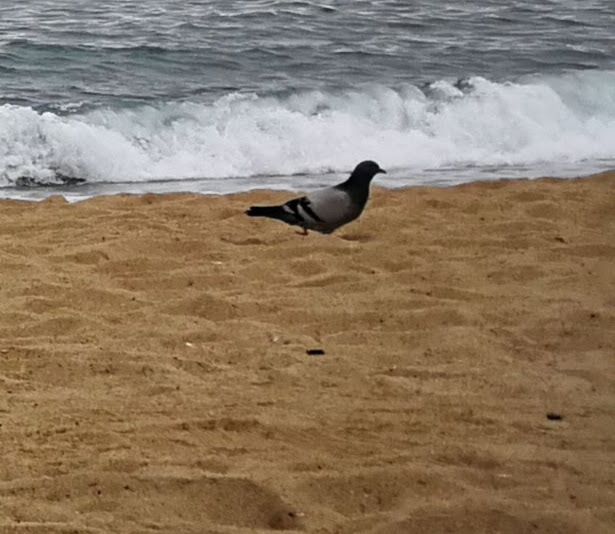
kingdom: Animalia
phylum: Chordata
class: Aves
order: Columbiformes
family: Columbidae
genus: Columba
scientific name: Columba livia
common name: Rock pigeon
